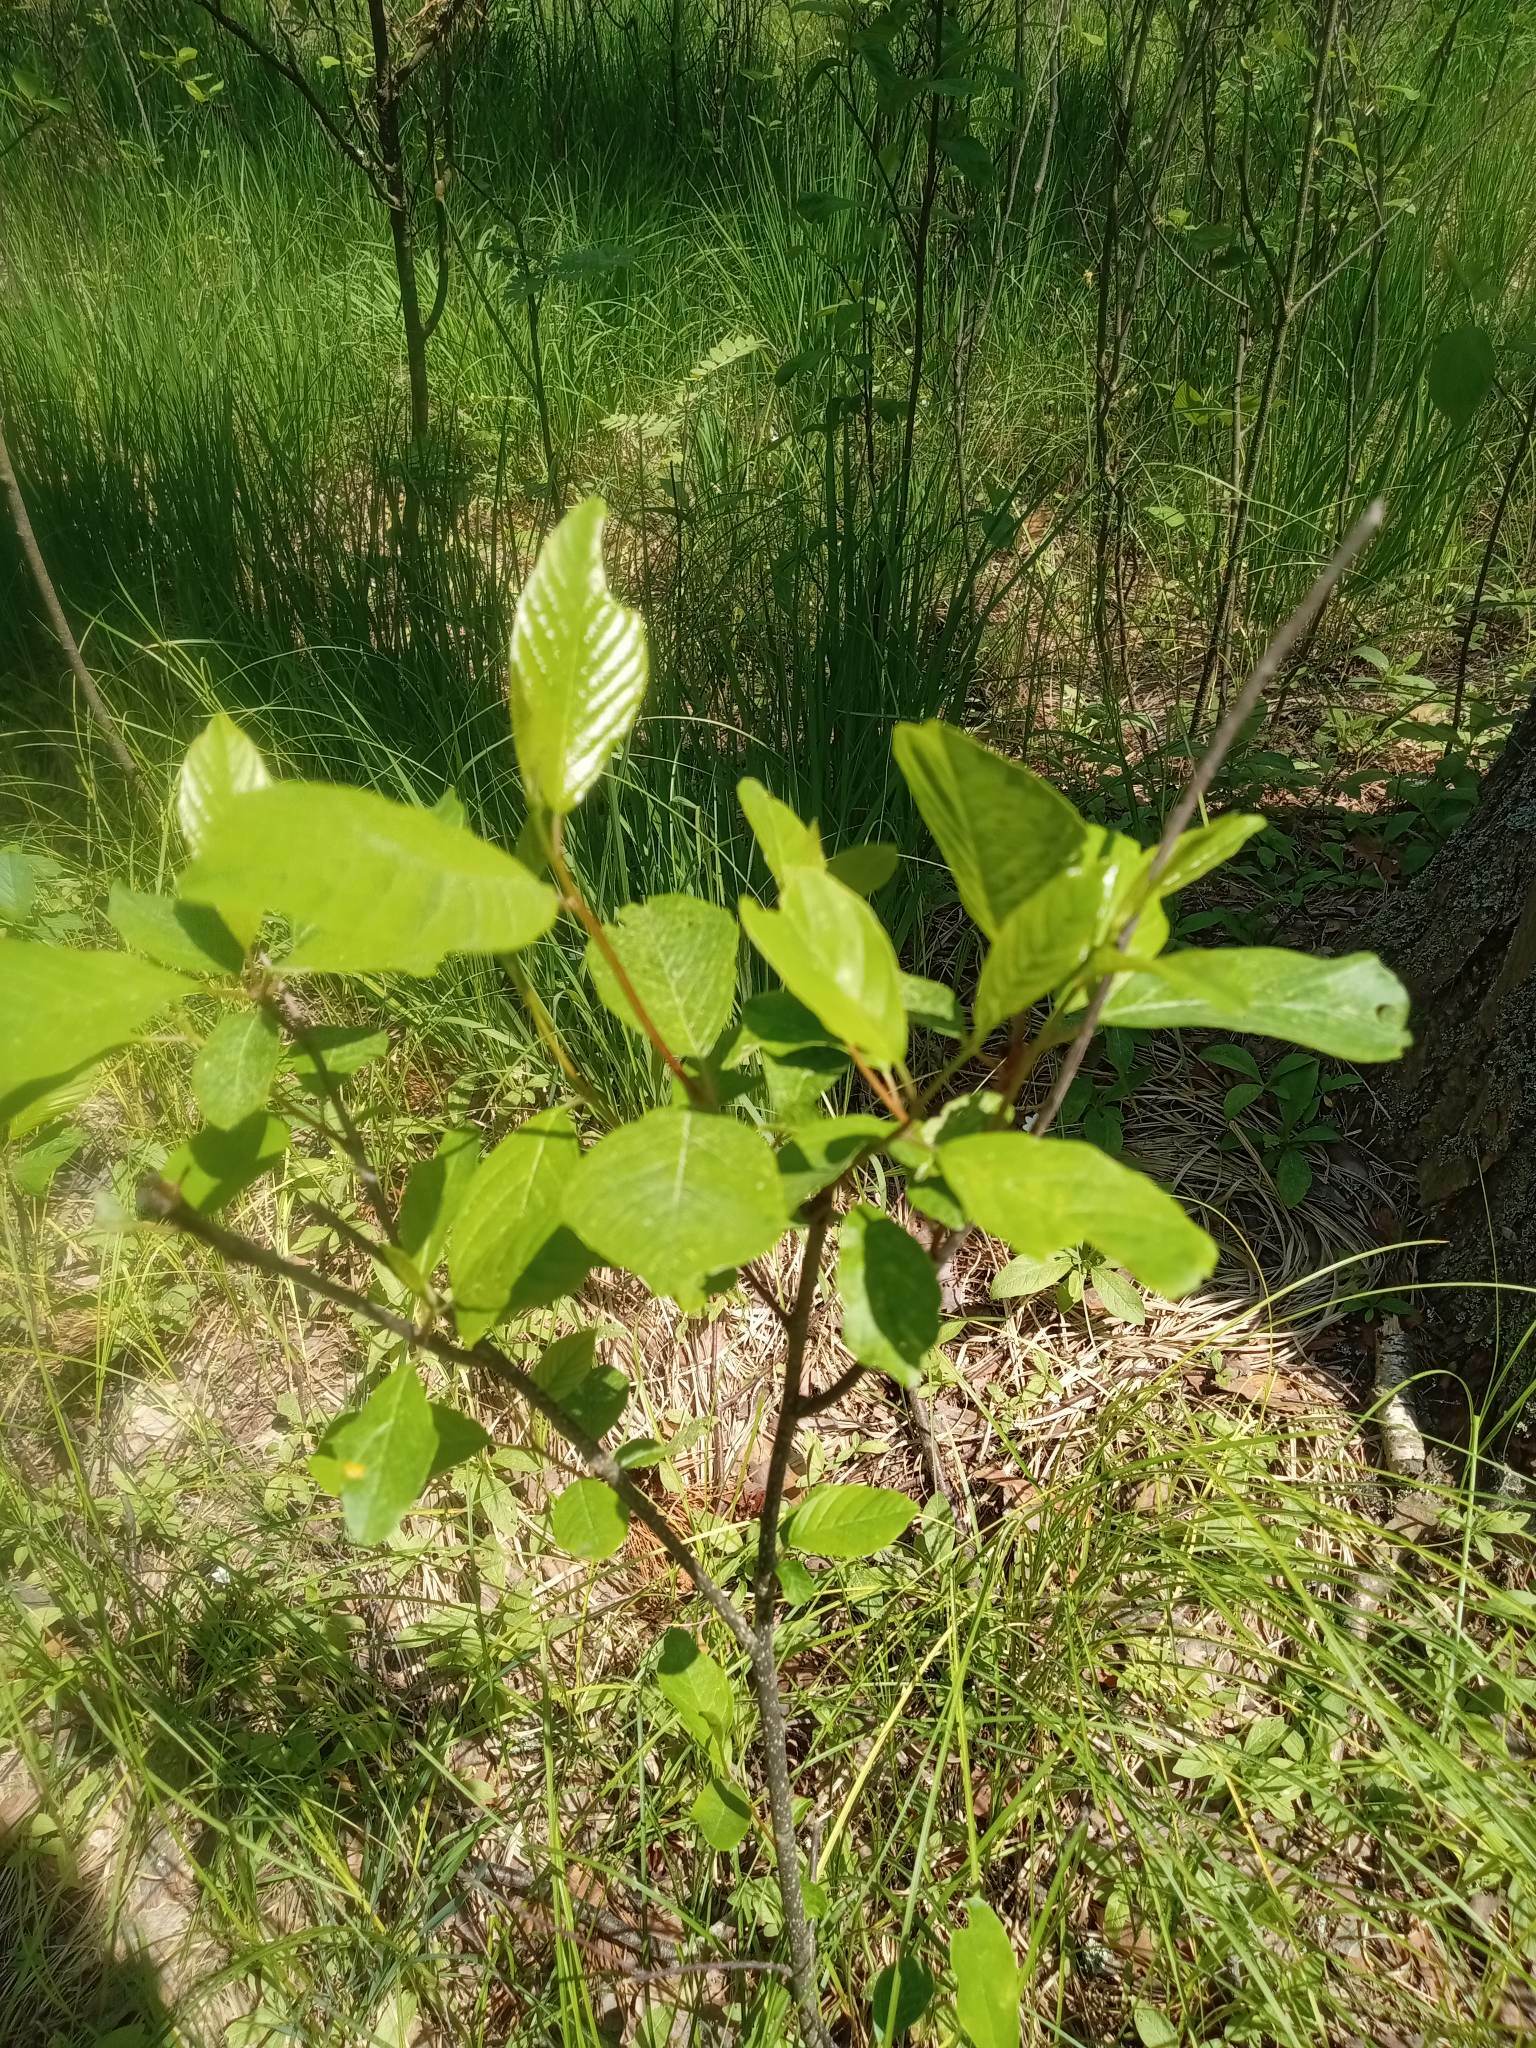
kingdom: Plantae
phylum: Tracheophyta
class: Magnoliopsida
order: Rosales
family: Rhamnaceae
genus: Frangula
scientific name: Frangula alnus
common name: Alder buckthorn
